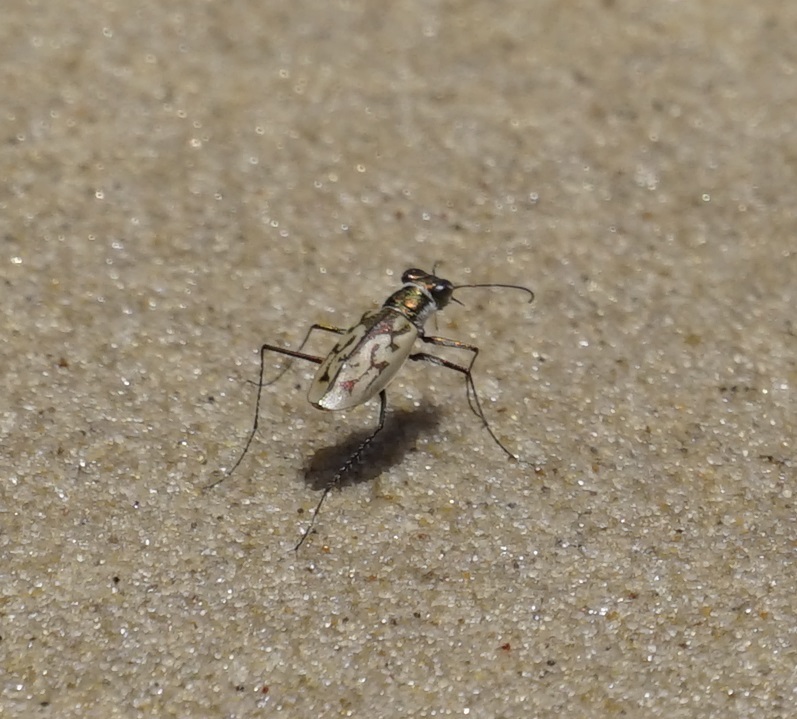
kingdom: Animalia
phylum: Arthropoda
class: Insecta
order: Coleoptera
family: Carabidae
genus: Hypaetha
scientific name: Hypaetha upsilon
